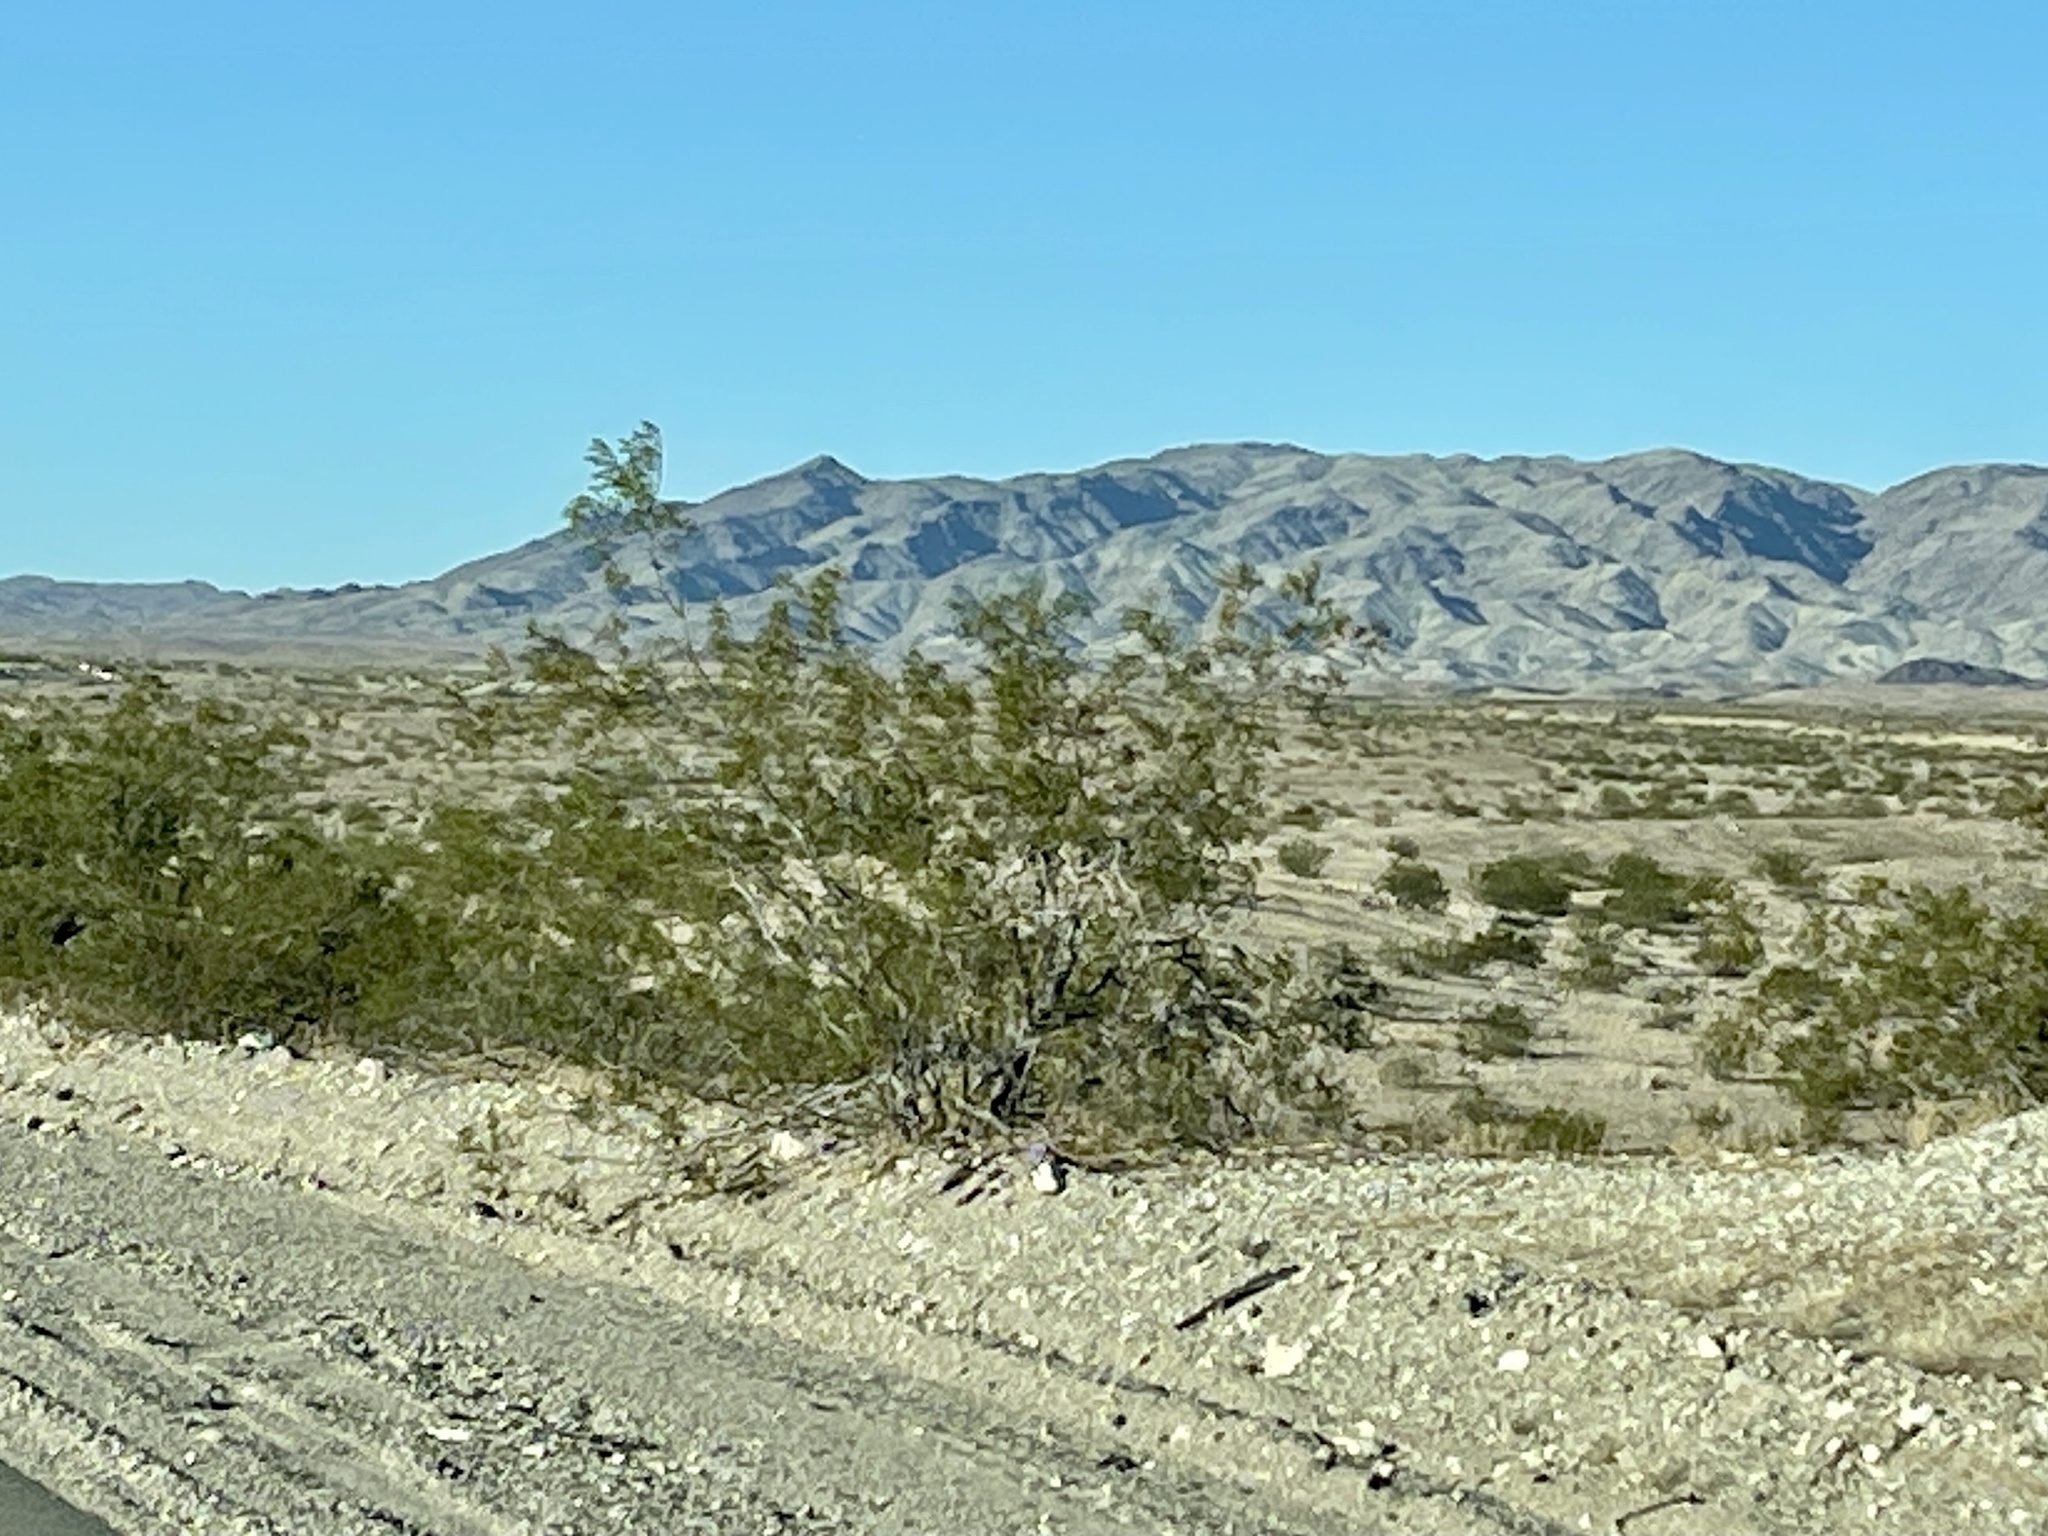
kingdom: Plantae
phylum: Tracheophyta
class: Magnoliopsida
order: Zygophyllales
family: Zygophyllaceae
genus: Larrea
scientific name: Larrea tridentata
